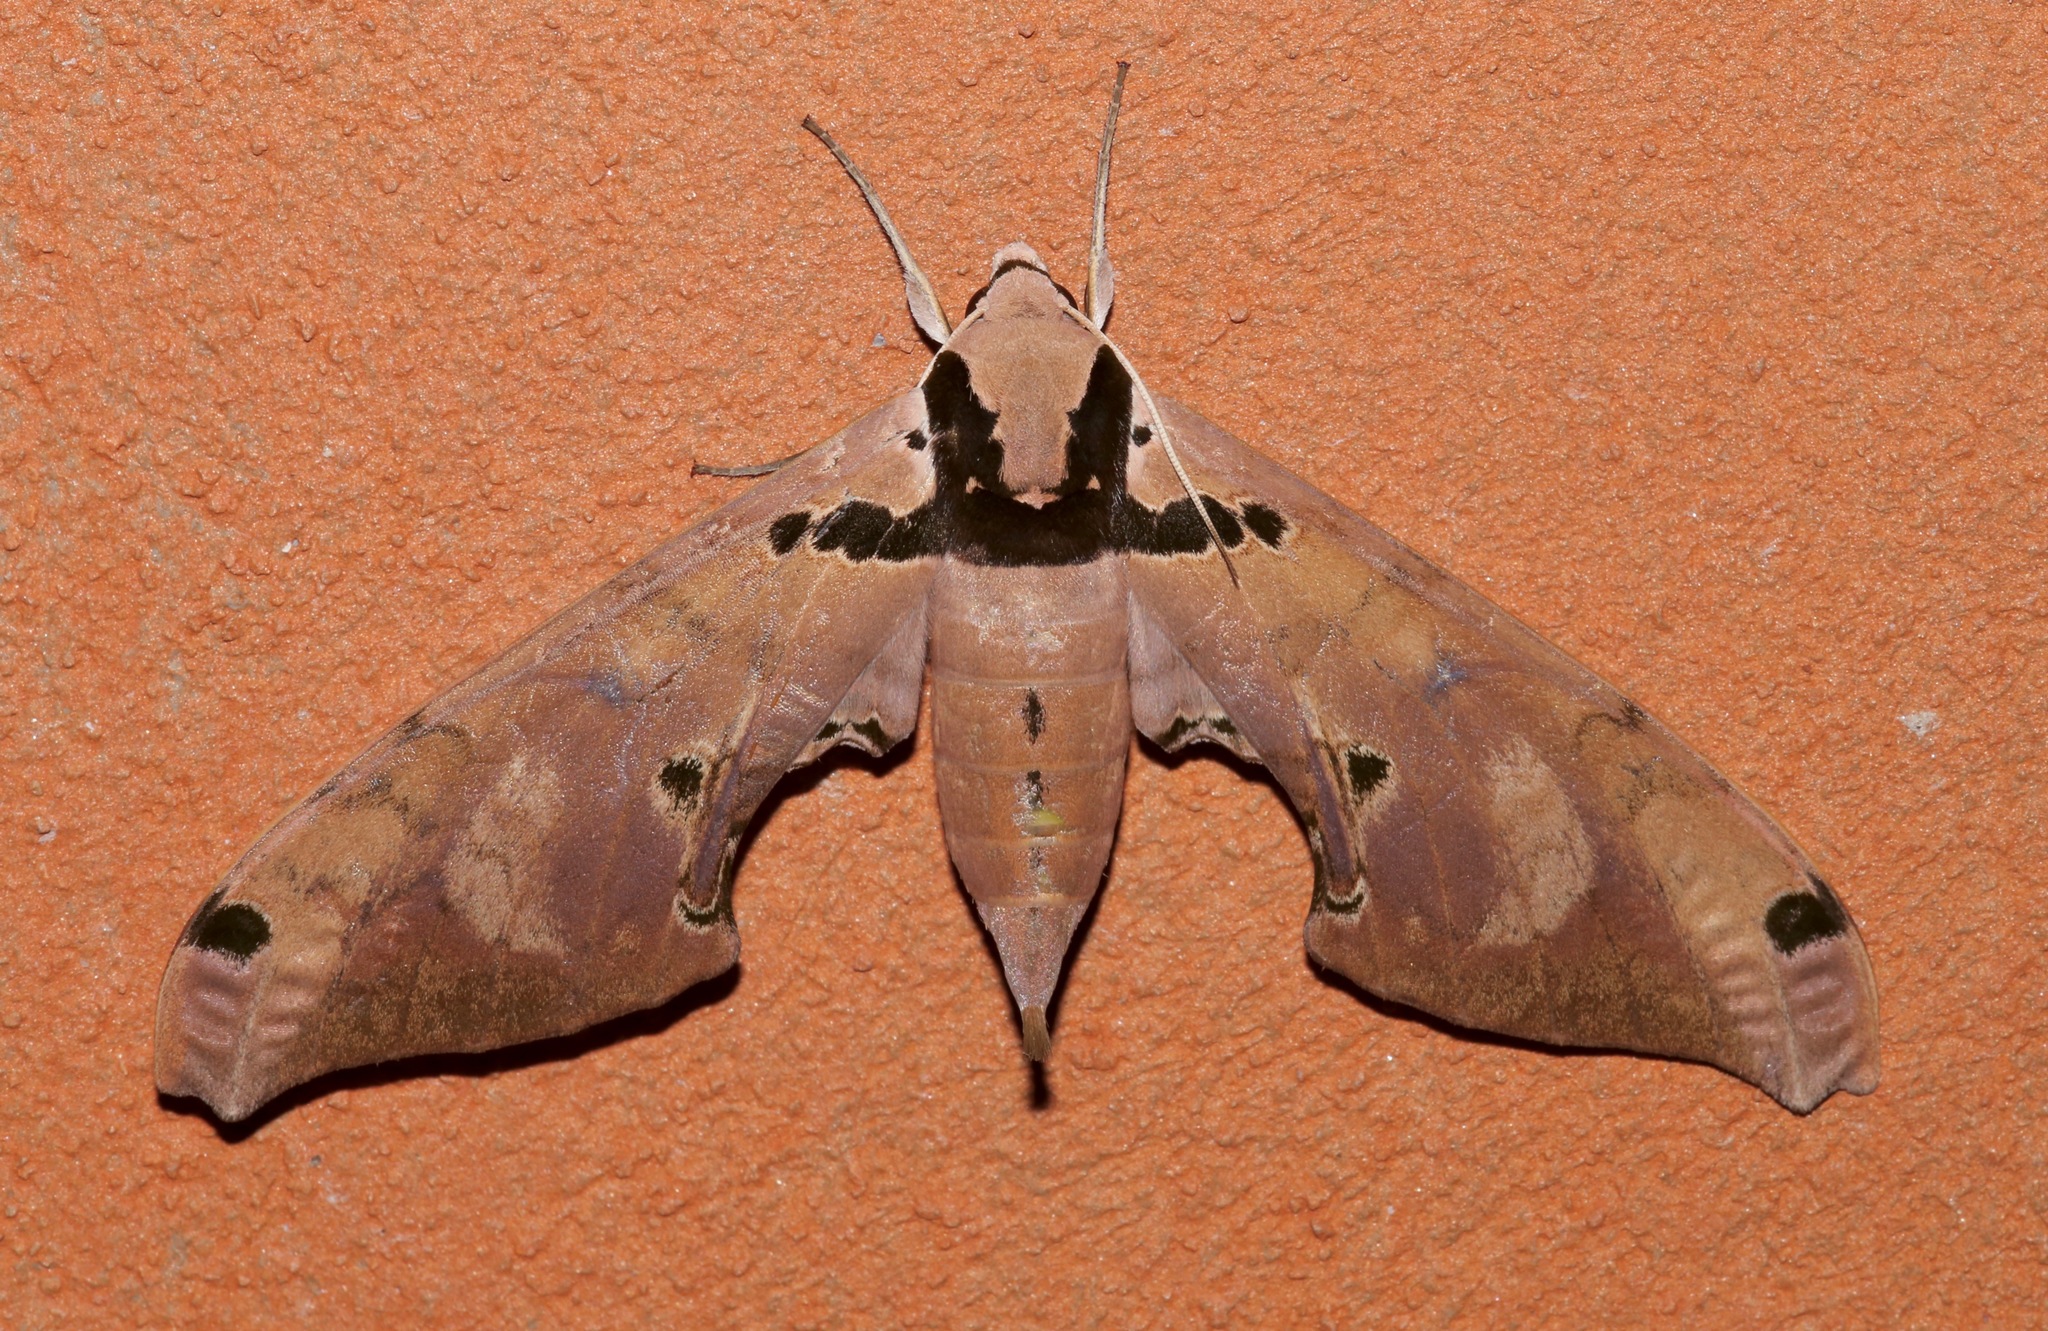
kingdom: Animalia
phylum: Arthropoda
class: Insecta
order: Lepidoptera
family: Sphingidae
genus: Adhemarius
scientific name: Adhemarius daphne
